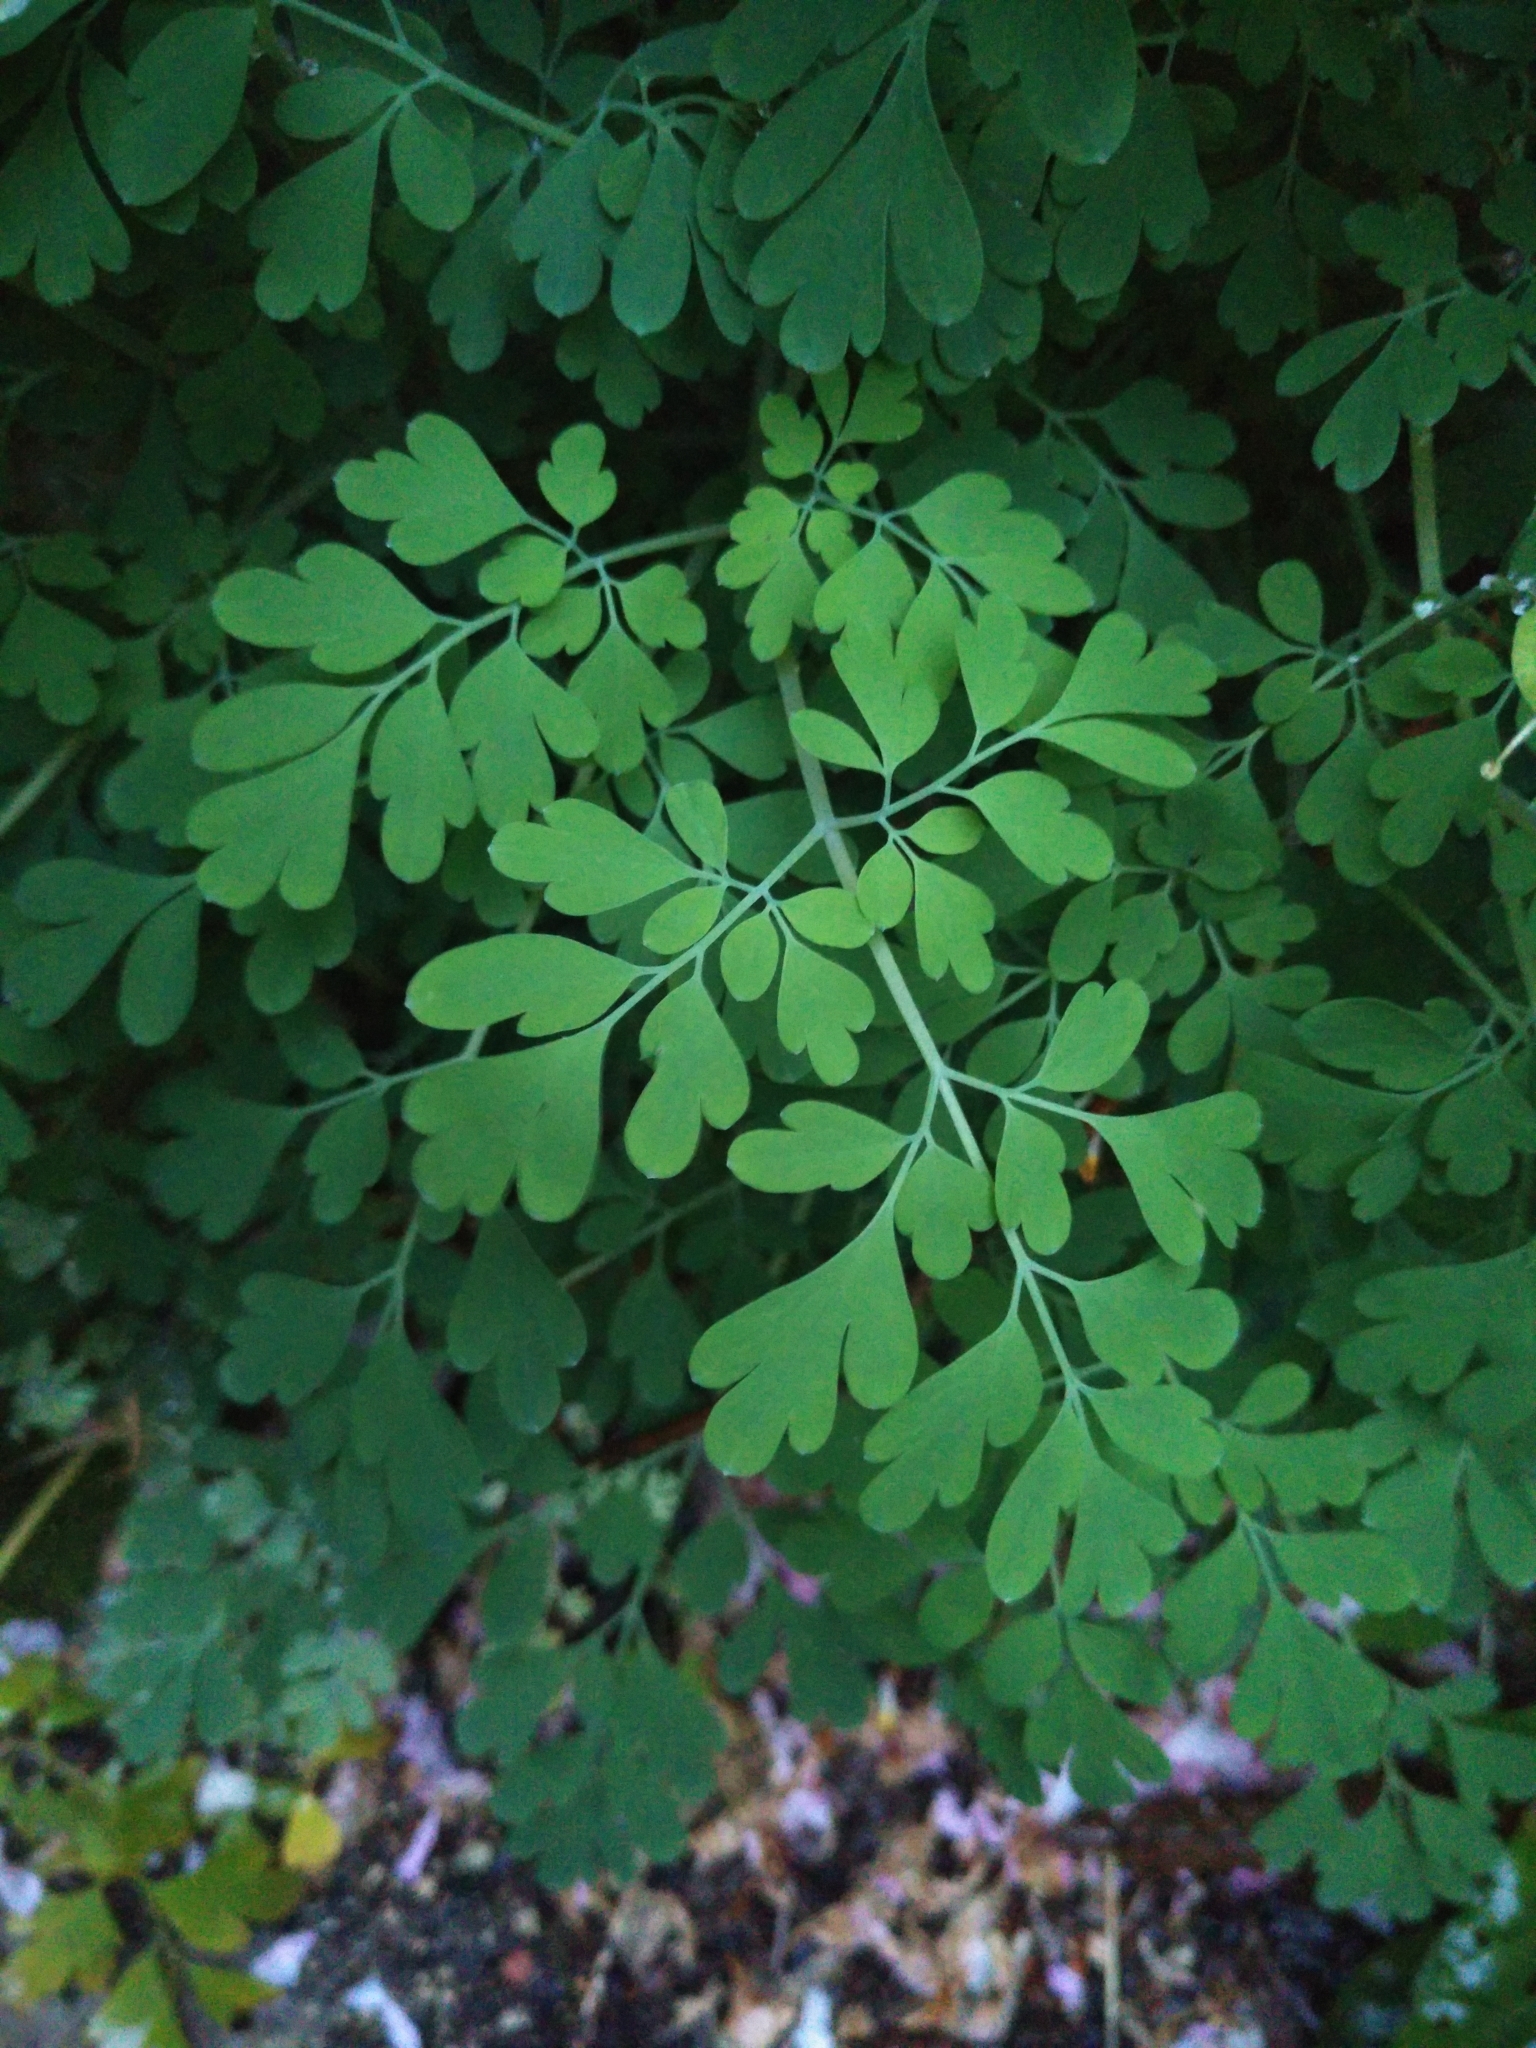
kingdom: Plantae
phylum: Tracheophyta
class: Magnoliopsida
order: Ranunculales
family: Papaveraceae
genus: Pseudofumaria
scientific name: Pseudofumaria alba
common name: Pale corydalis
